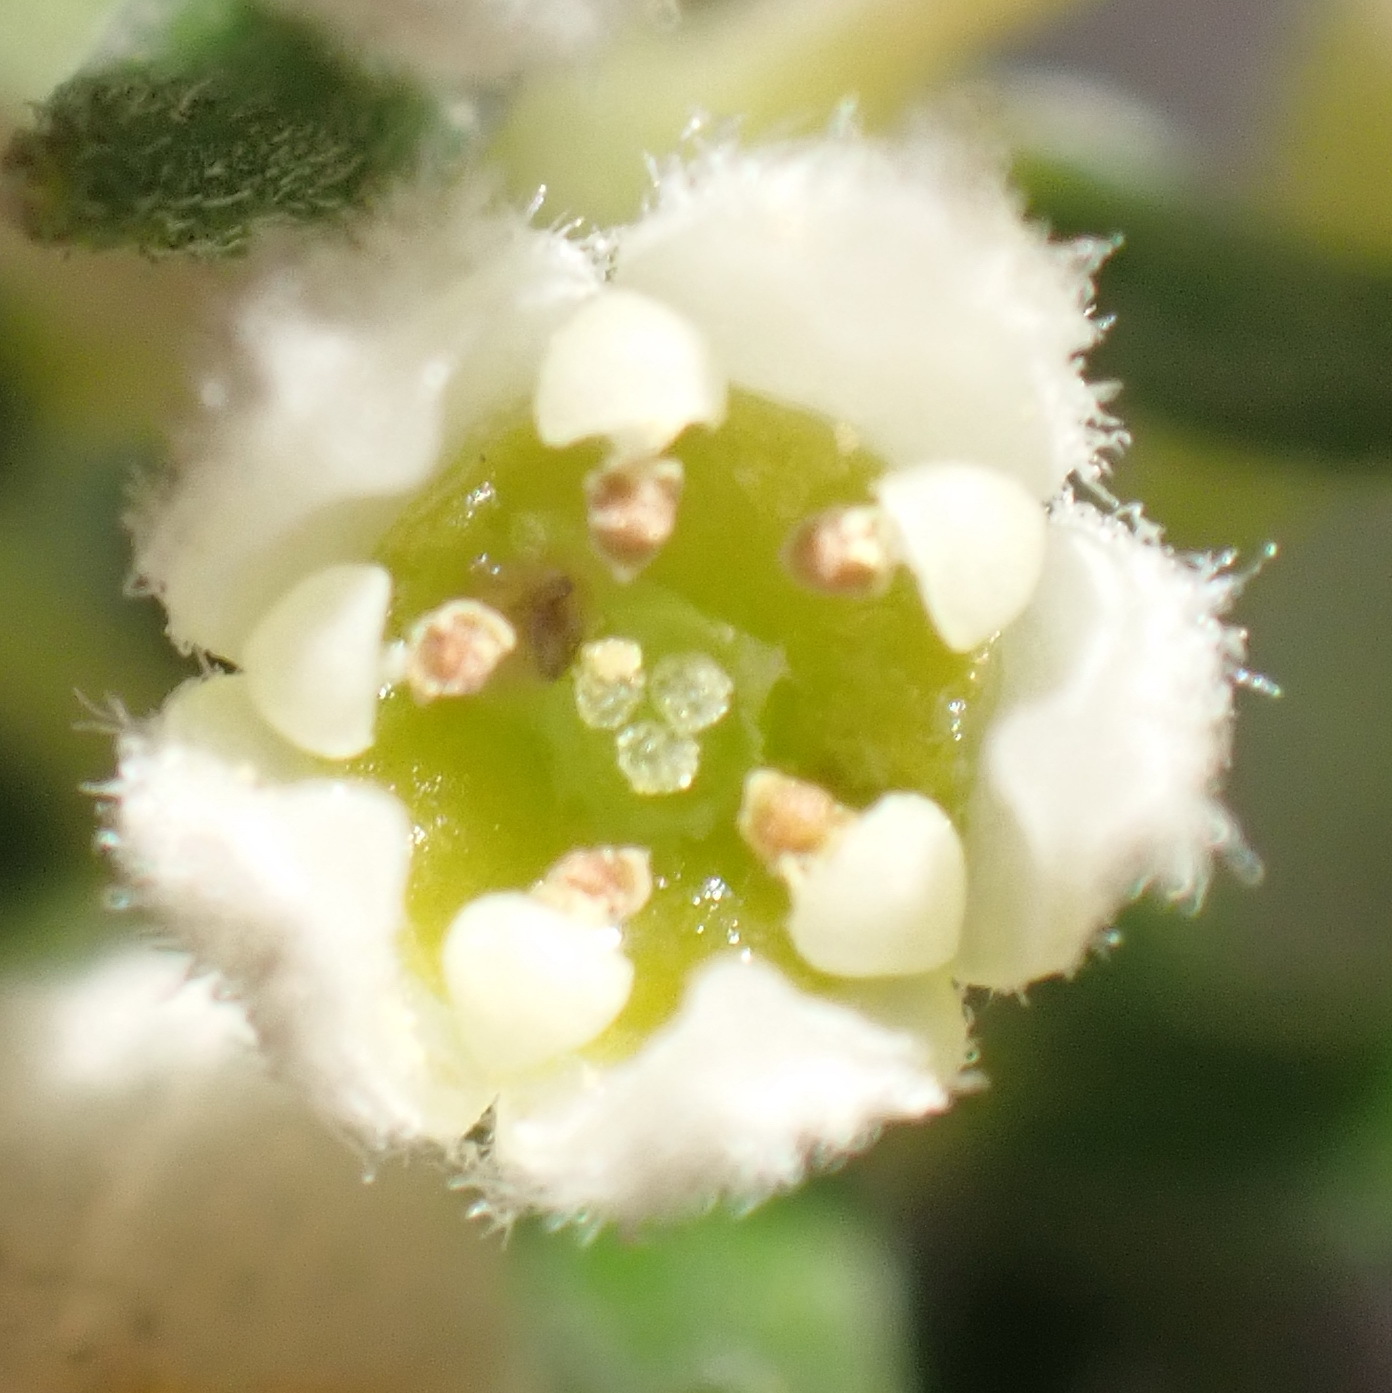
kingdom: Plantae
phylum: Tracheophyta
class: Magnoliopsida
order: Rosales
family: Rhamnaceae
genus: Phylica
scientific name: Phylica axillaris
